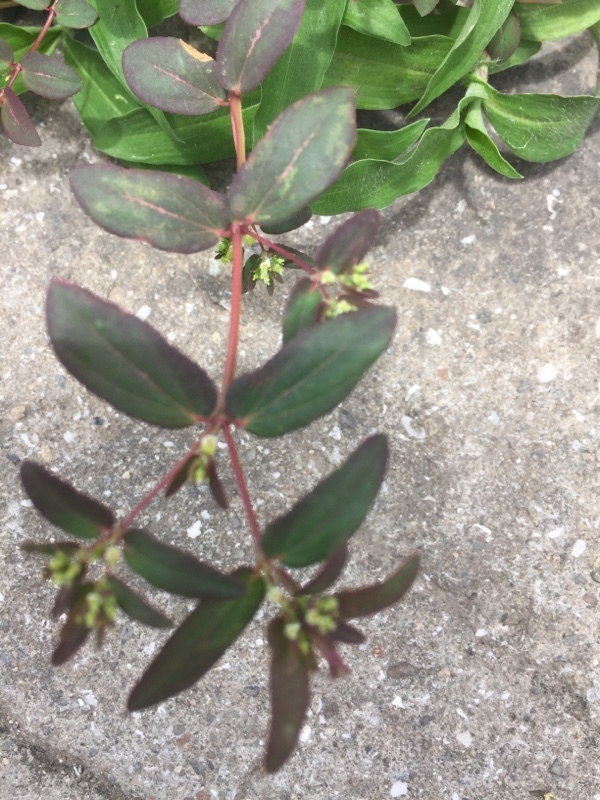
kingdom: Plantae
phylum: Tracheophyta
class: Magnoliopsida
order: Malpighiales
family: Euphorbiaceae
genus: Euphorbia
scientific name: Euphorbia hyssopifolia
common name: Hyssopleaf sandmat
